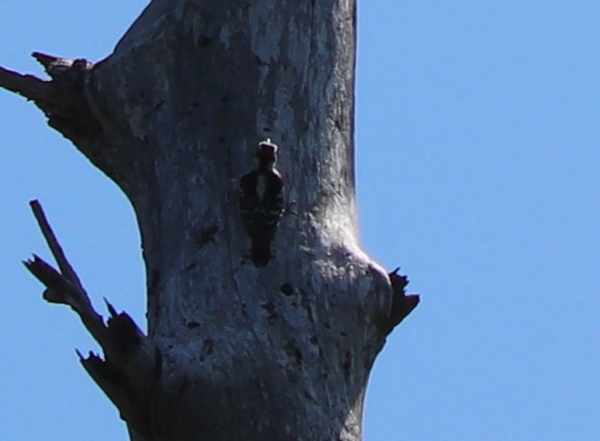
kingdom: Animalia
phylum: Chordata
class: Aves
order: Piciformes
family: Picidae
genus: Dryobates
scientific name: Dryobates pubescens
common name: Downy woodpecker
